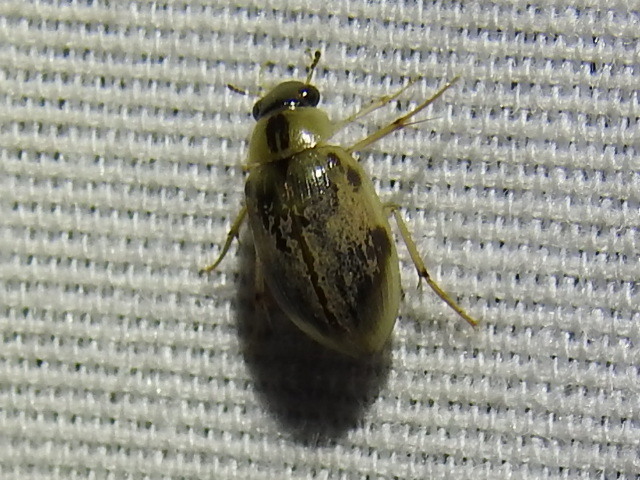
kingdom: Animalia
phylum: Arthropoda
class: Insecta
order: Coleoptera
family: Hydrophilidae
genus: Berosus
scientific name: Berosus miles
